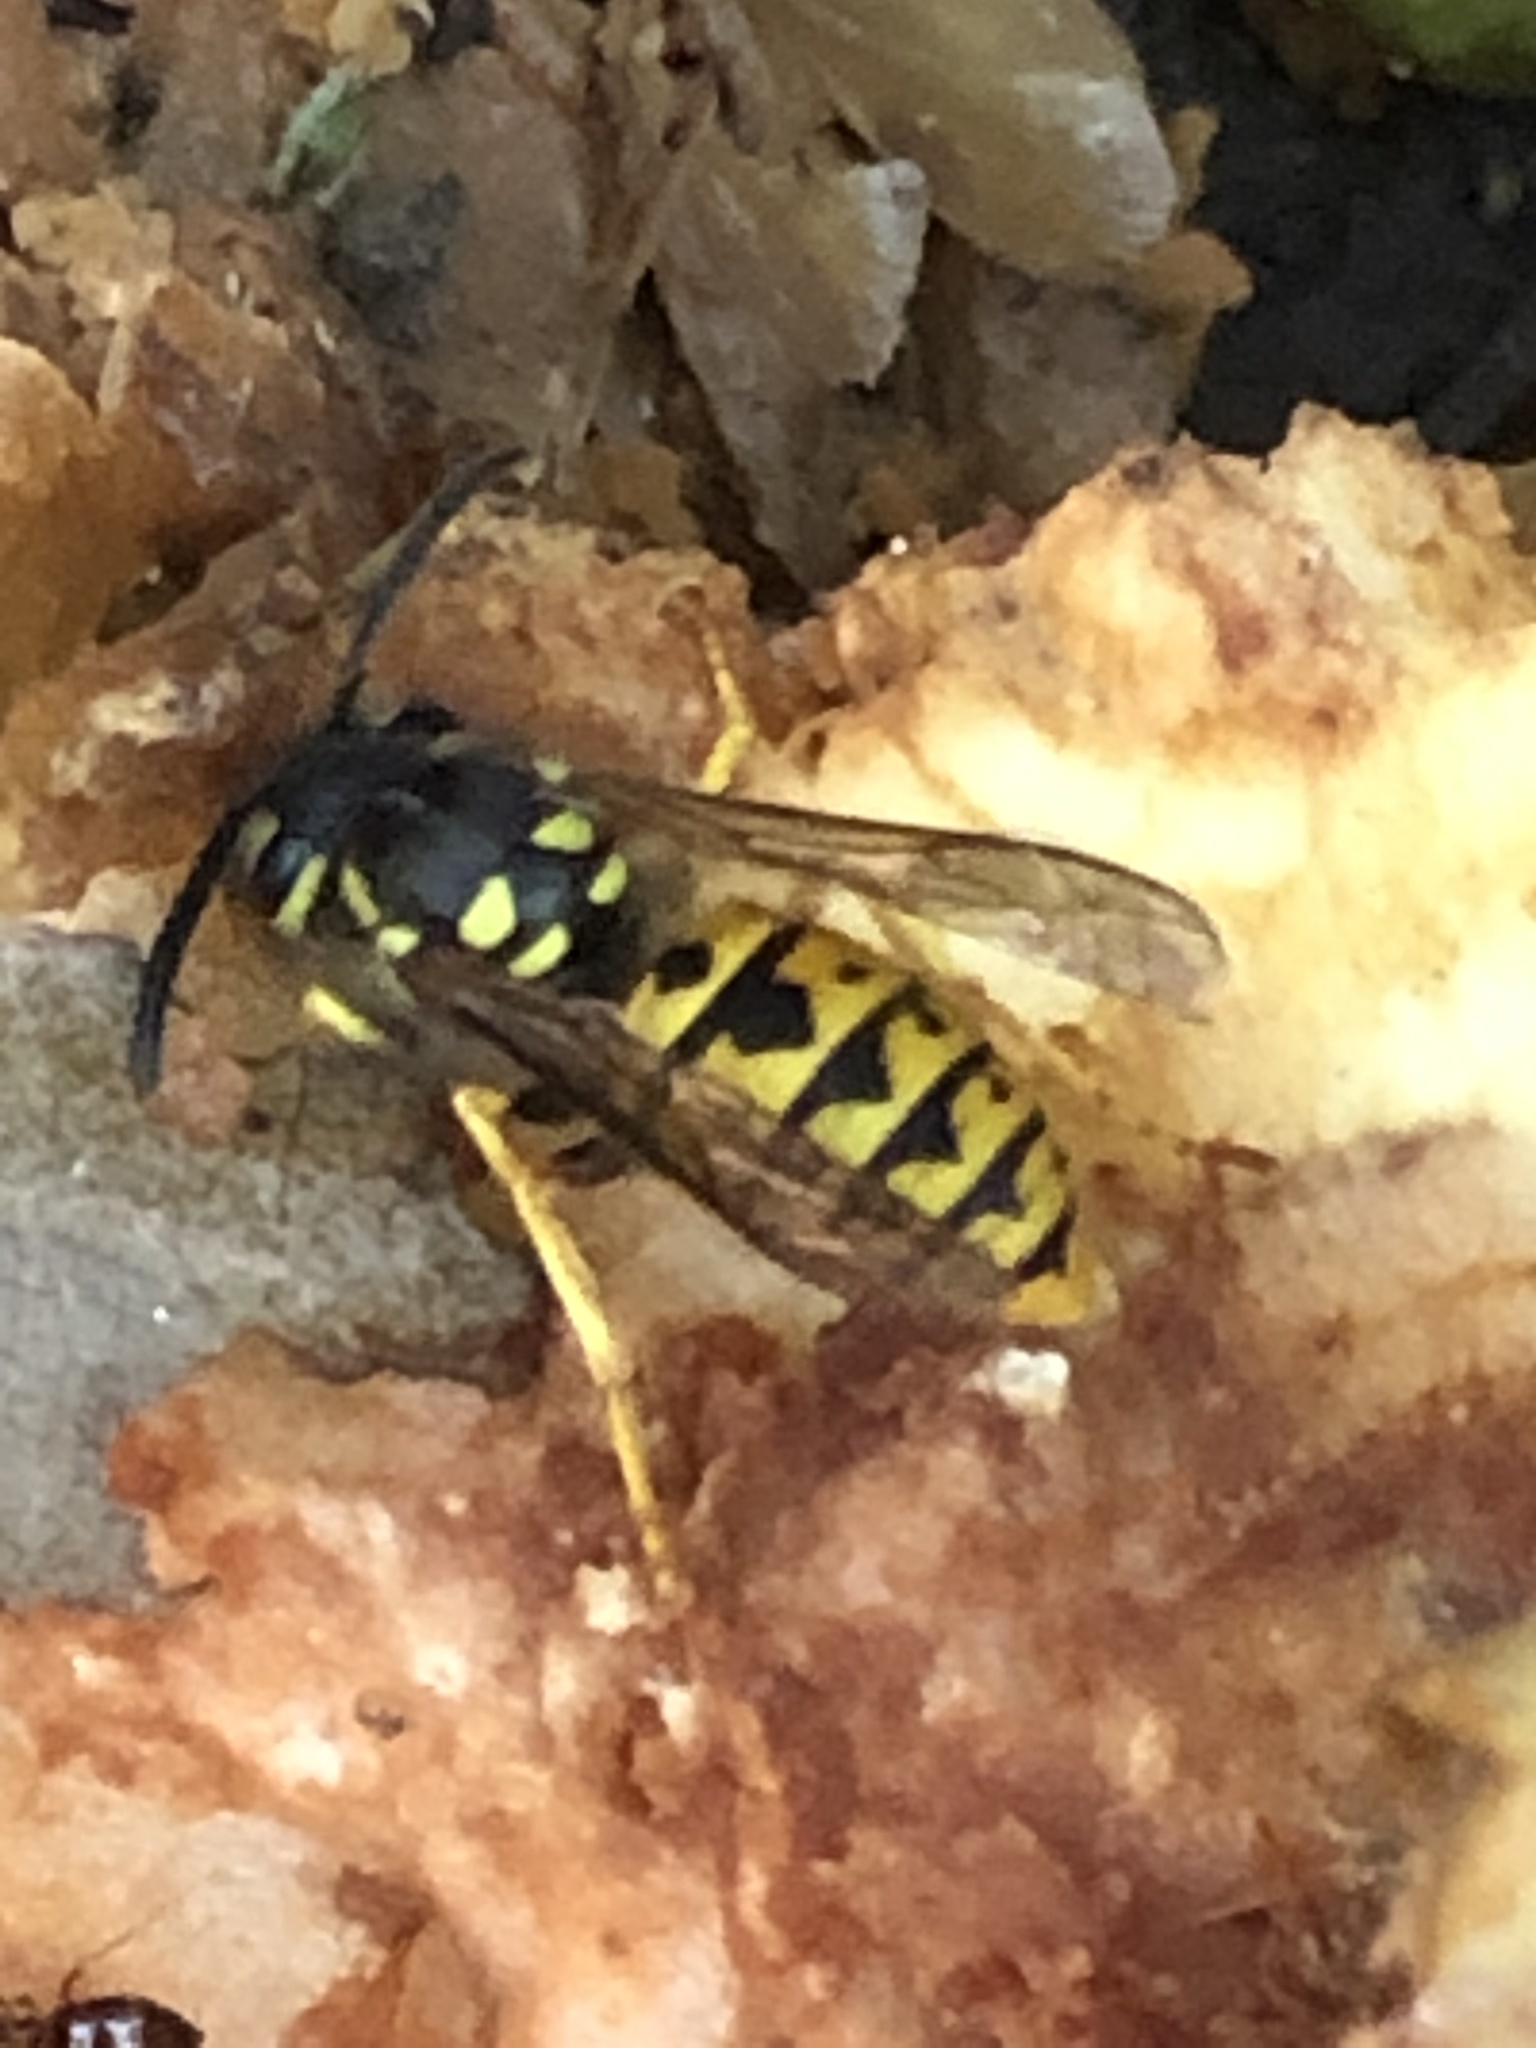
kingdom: Animalia
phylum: Arthropoda
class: Insecta
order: Hymenoptera
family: Vespidae
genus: Vespula
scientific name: Vespula germanica
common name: German wasp
